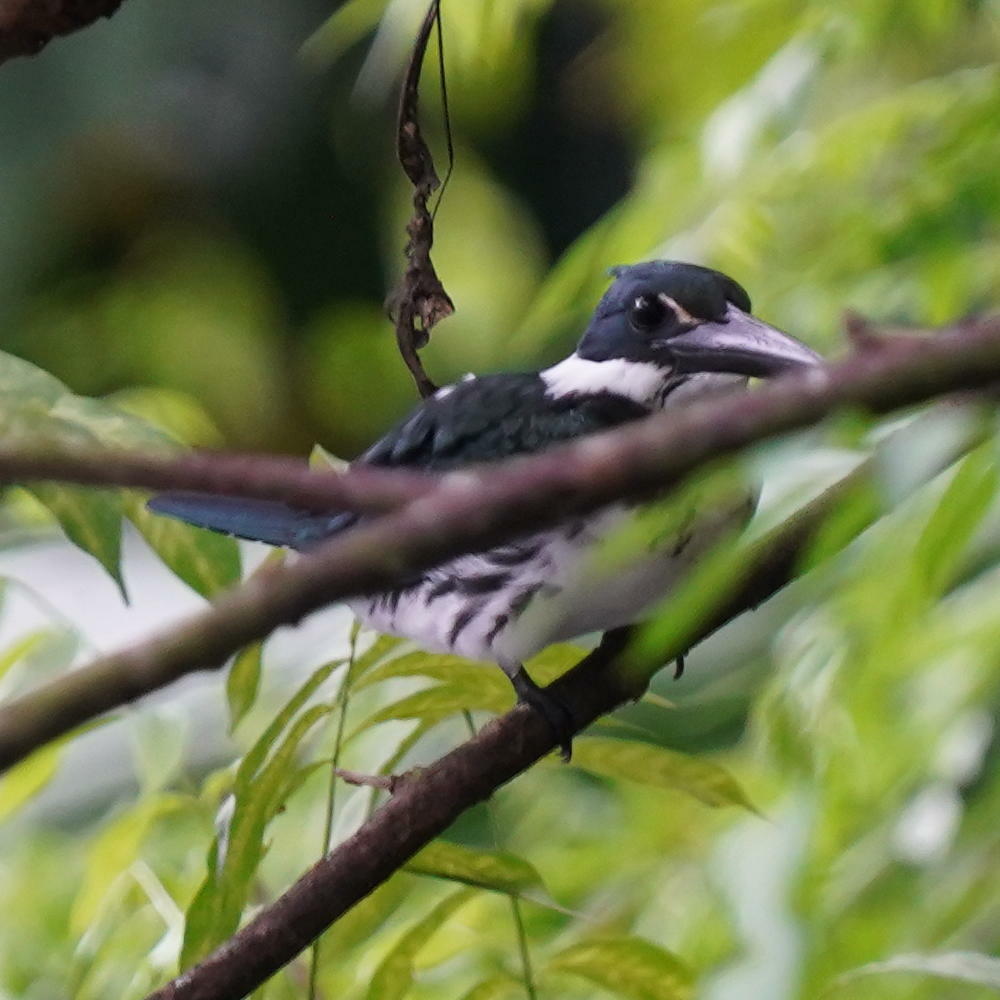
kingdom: Animalia
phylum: Chordata
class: Aves
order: Coraciiformes
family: Alcedinidae
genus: Chloroceryle
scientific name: Chloroceryle amazona
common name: Amazon kingfisher
